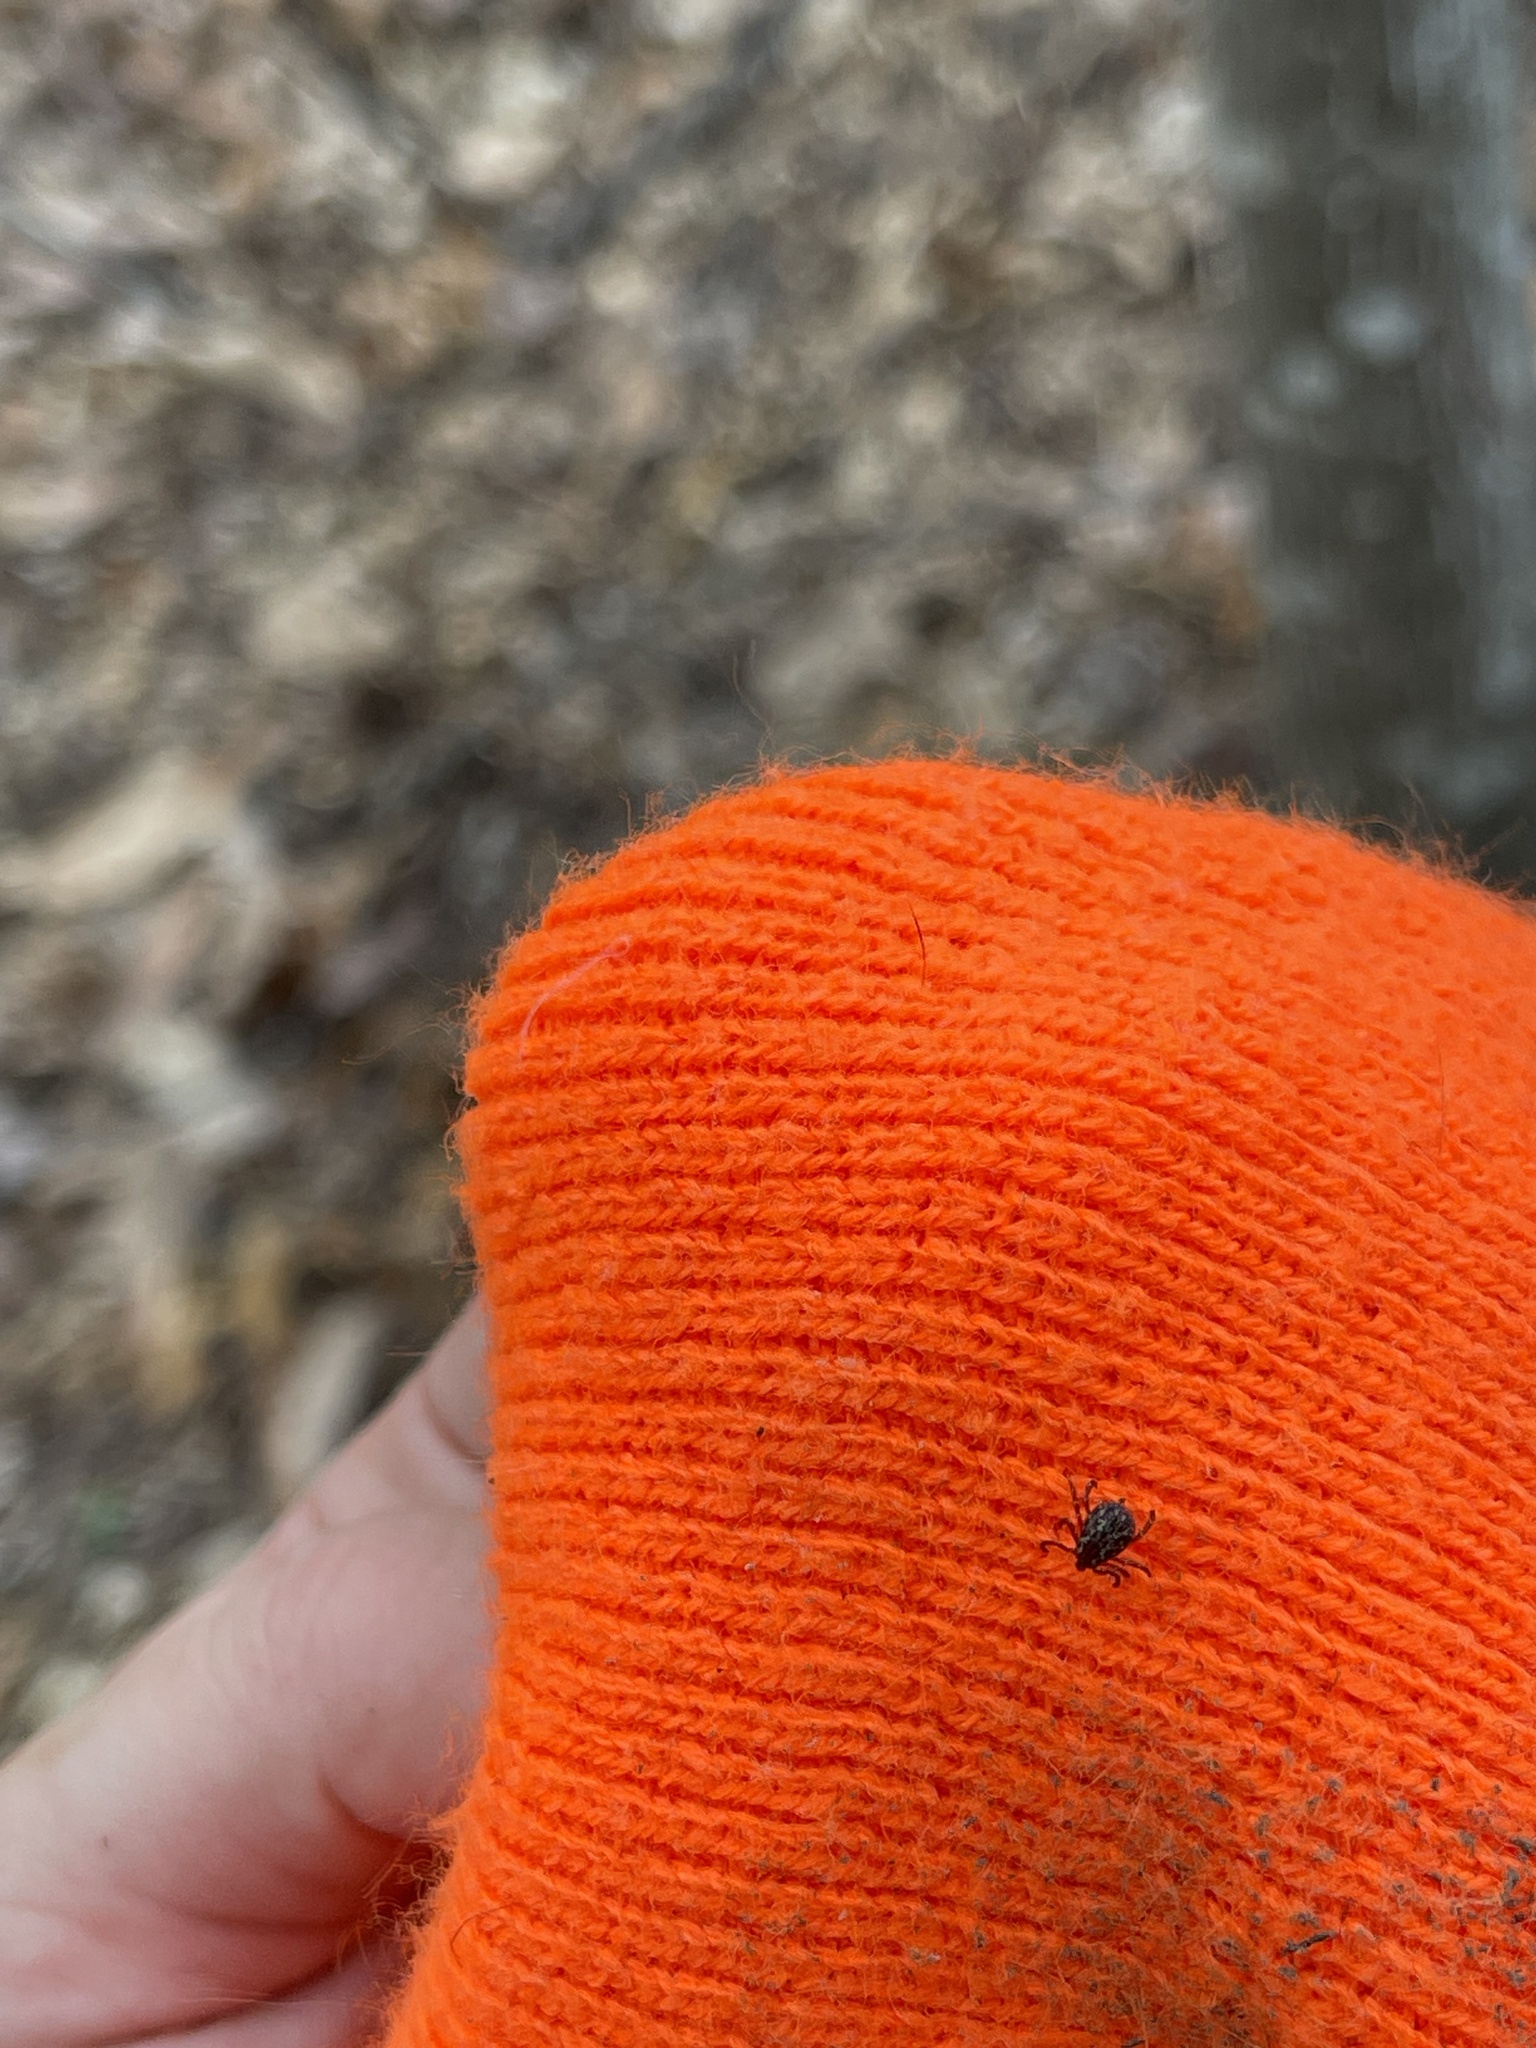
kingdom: Animalia
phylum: Arthropoda
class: Arachnida
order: Ixodida
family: Ixodidae
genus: Dermacentor
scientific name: Dermacentor variabilis
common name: American dog tick
